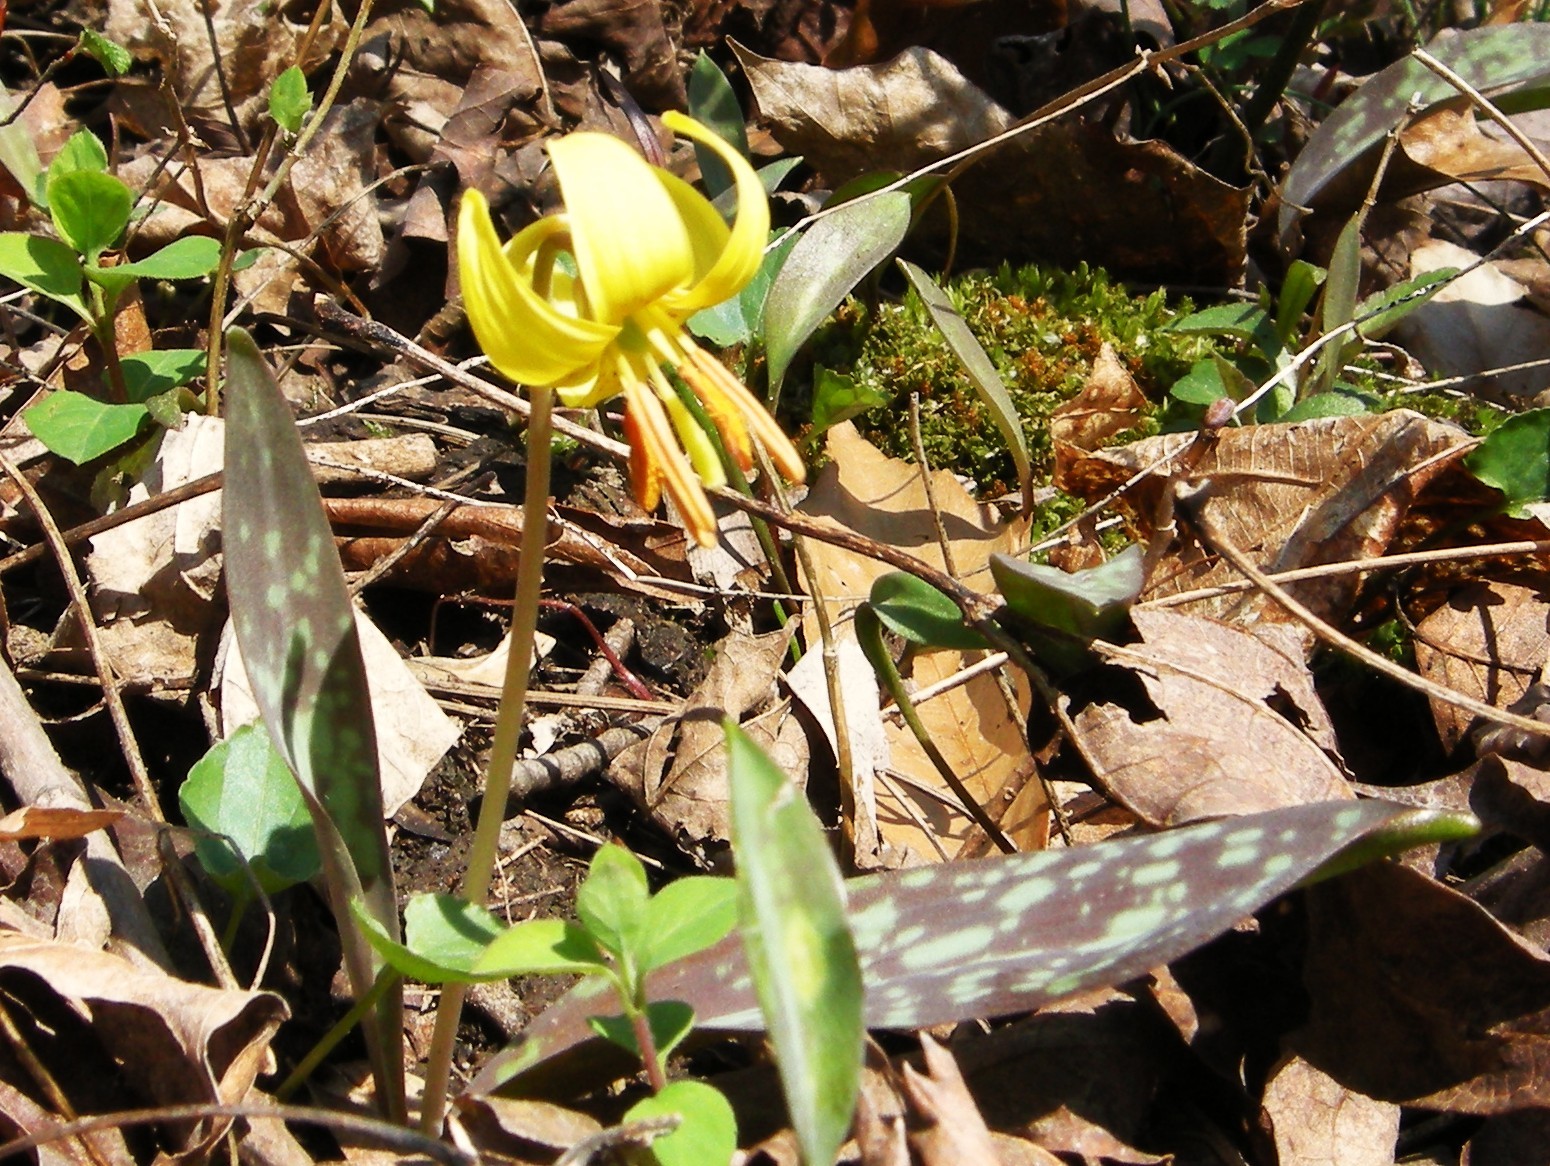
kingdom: Plantae
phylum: Tracheophyta
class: Liliopsida
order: Liliales
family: Liliaceae
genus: Erythronium
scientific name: Erythronium americanum
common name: Yellow adder's-tongue
